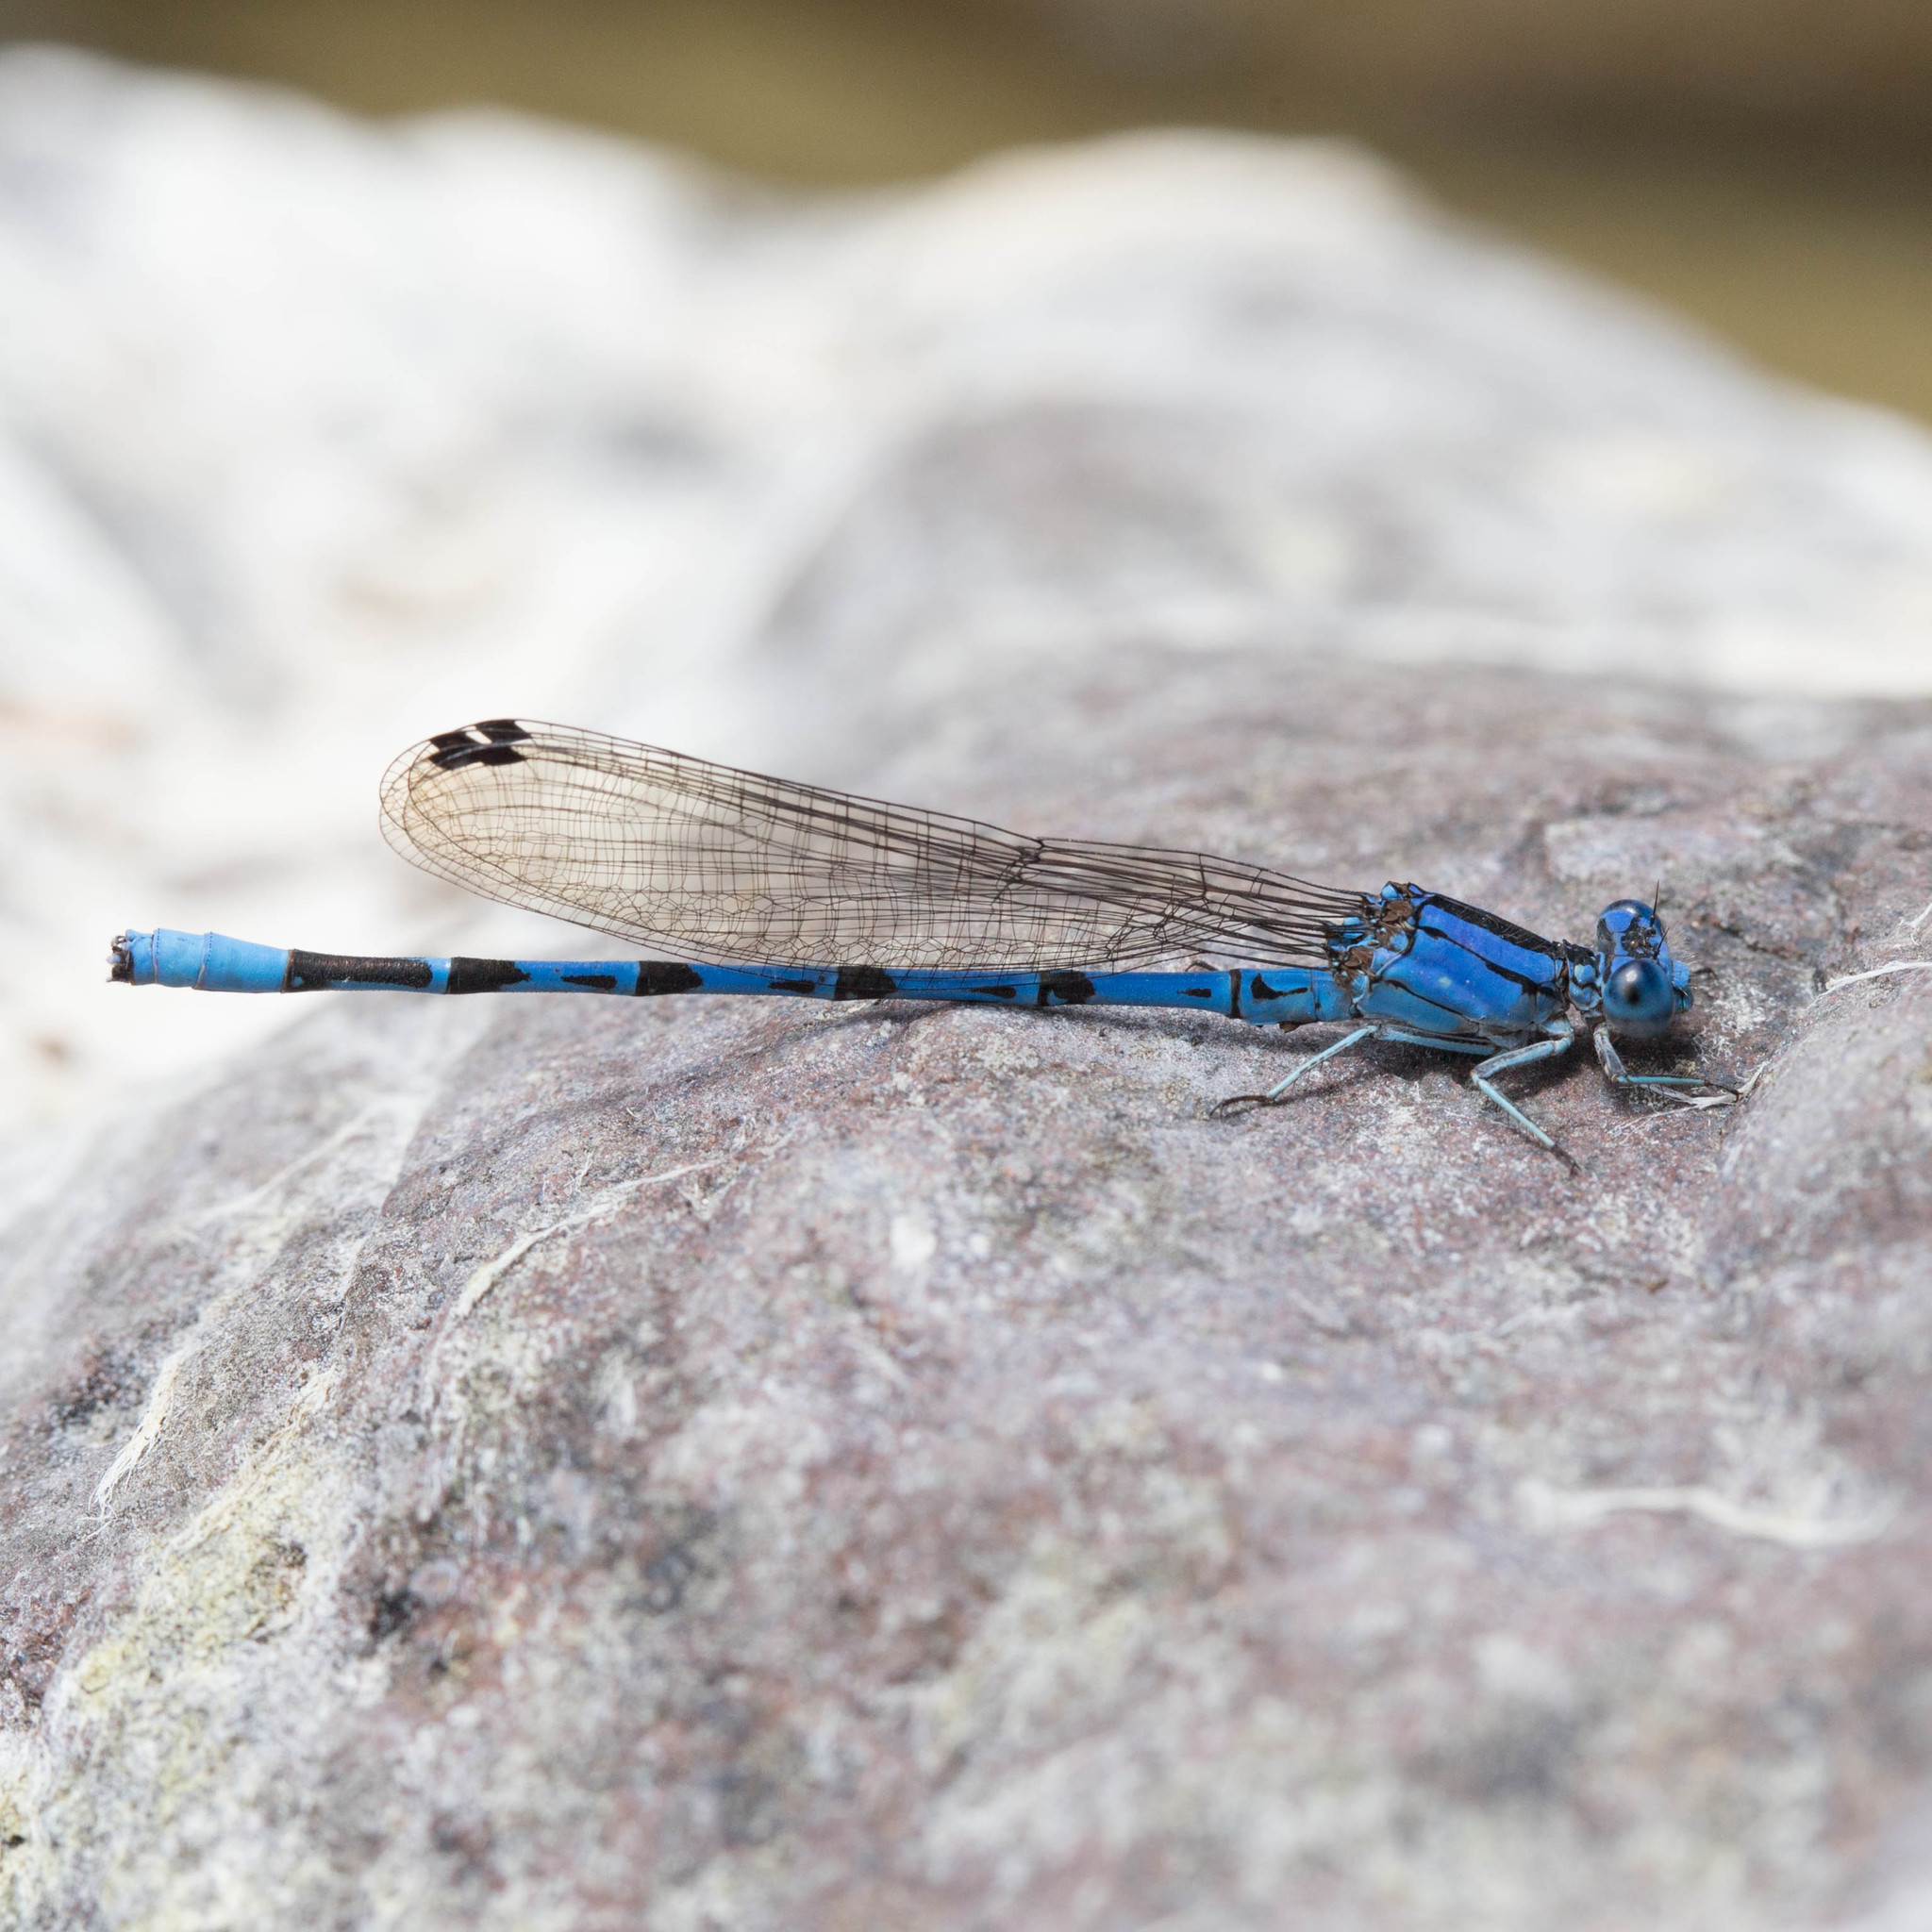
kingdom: Animalia
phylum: Arthropoda
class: Insecta
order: Odonata
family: Coenagrionidae
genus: Argia
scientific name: Argia vivida
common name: Vivid dancer
